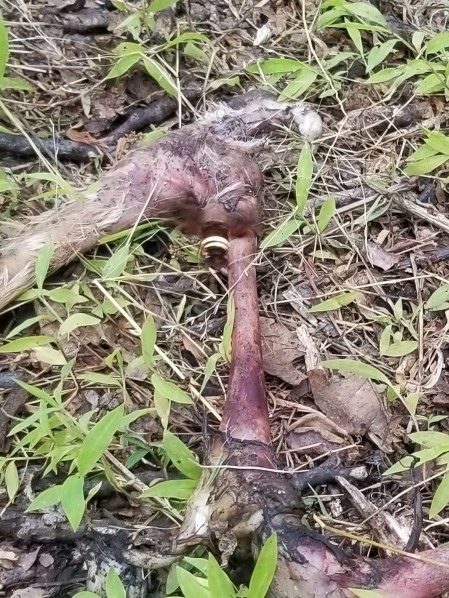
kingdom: Animalia
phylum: Arthropoda
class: Insecta
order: Lepidoptera
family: Sphingidae
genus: Amphion
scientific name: Amphion floridensis
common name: Nessus sphinx
